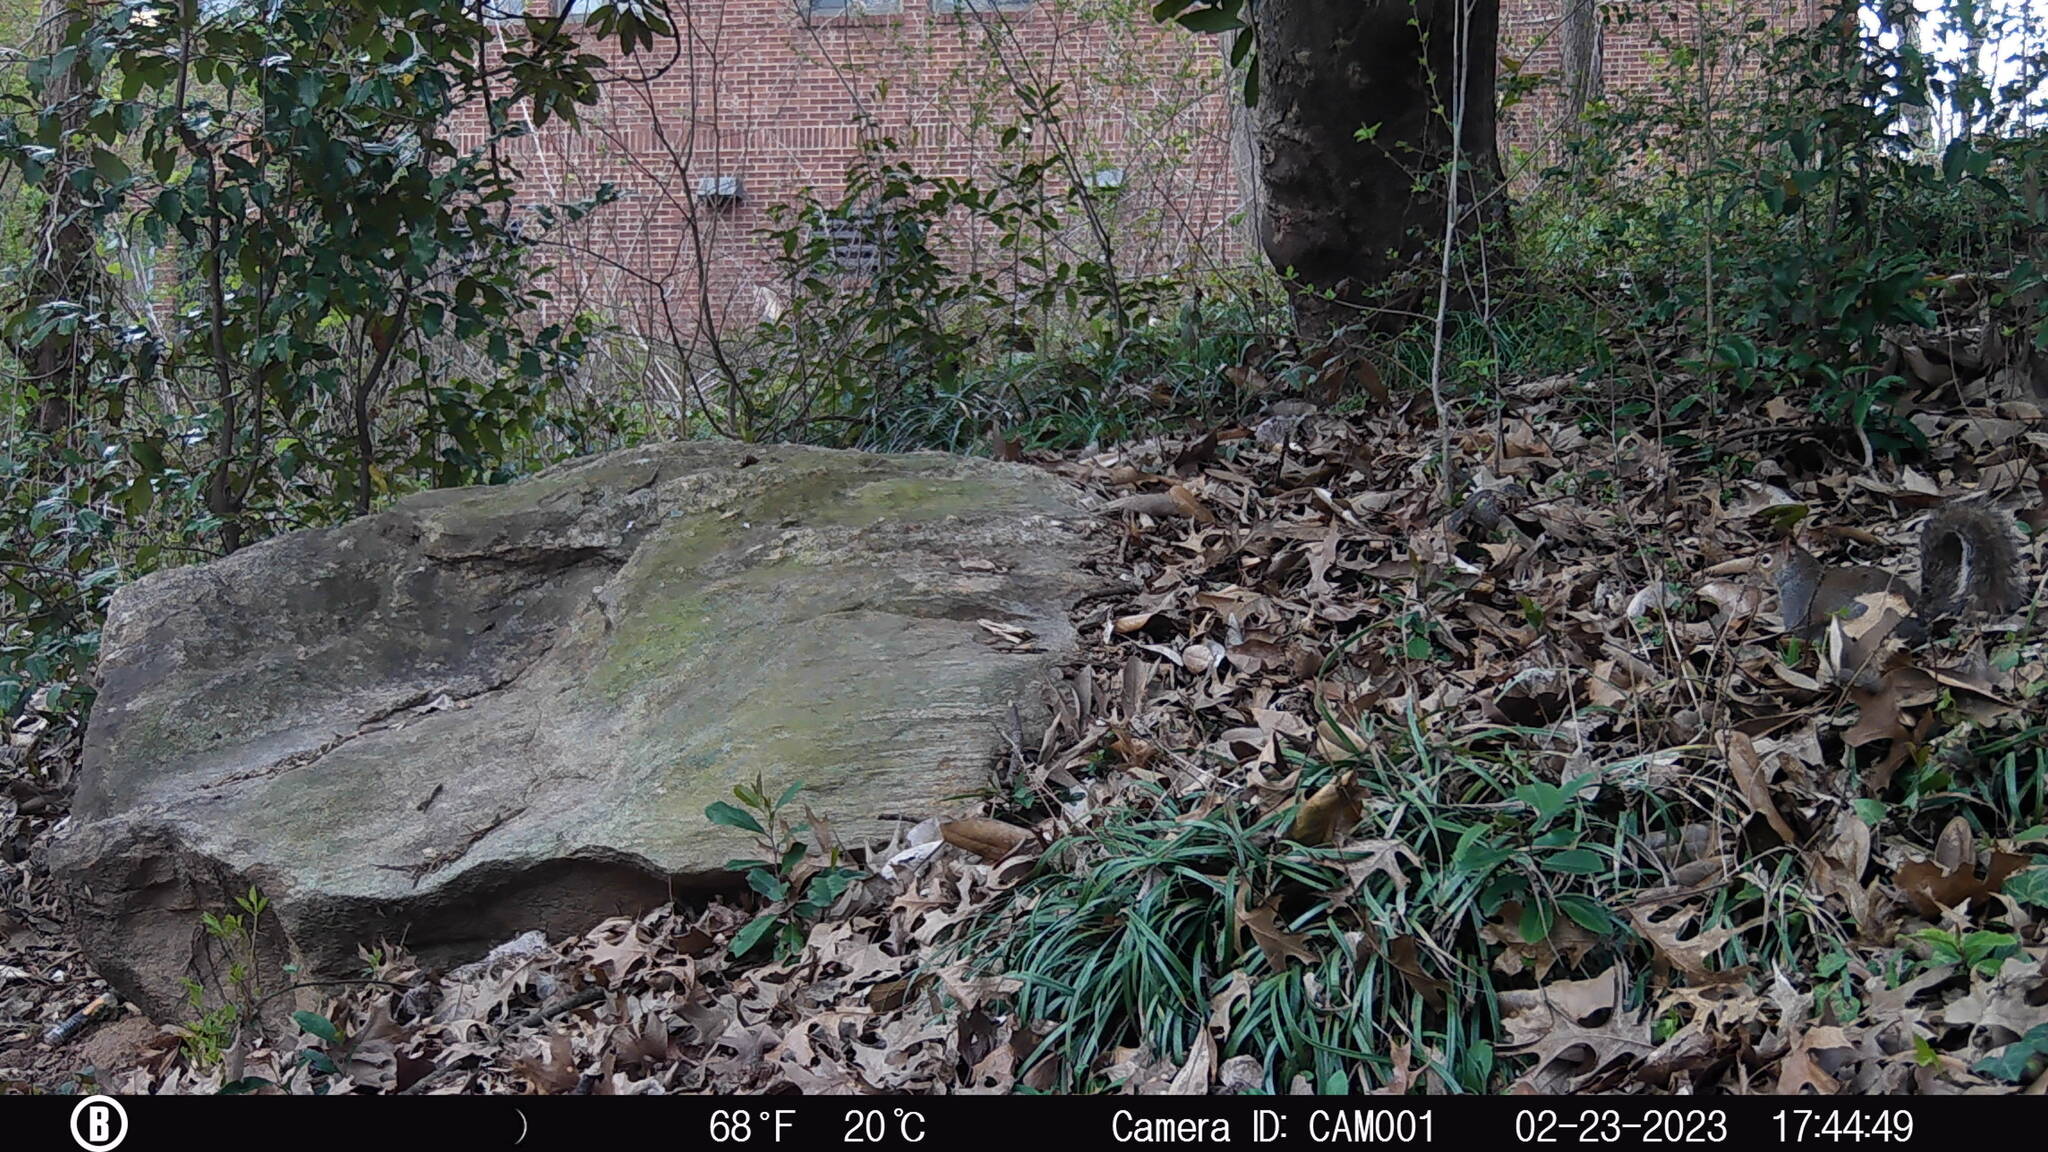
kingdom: Animalia
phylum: Chordata
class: Mammalia
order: Rodentia
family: Sciuridae
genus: Sciurus
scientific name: Sciurus carolinensis
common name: Eastern gray squirrel
